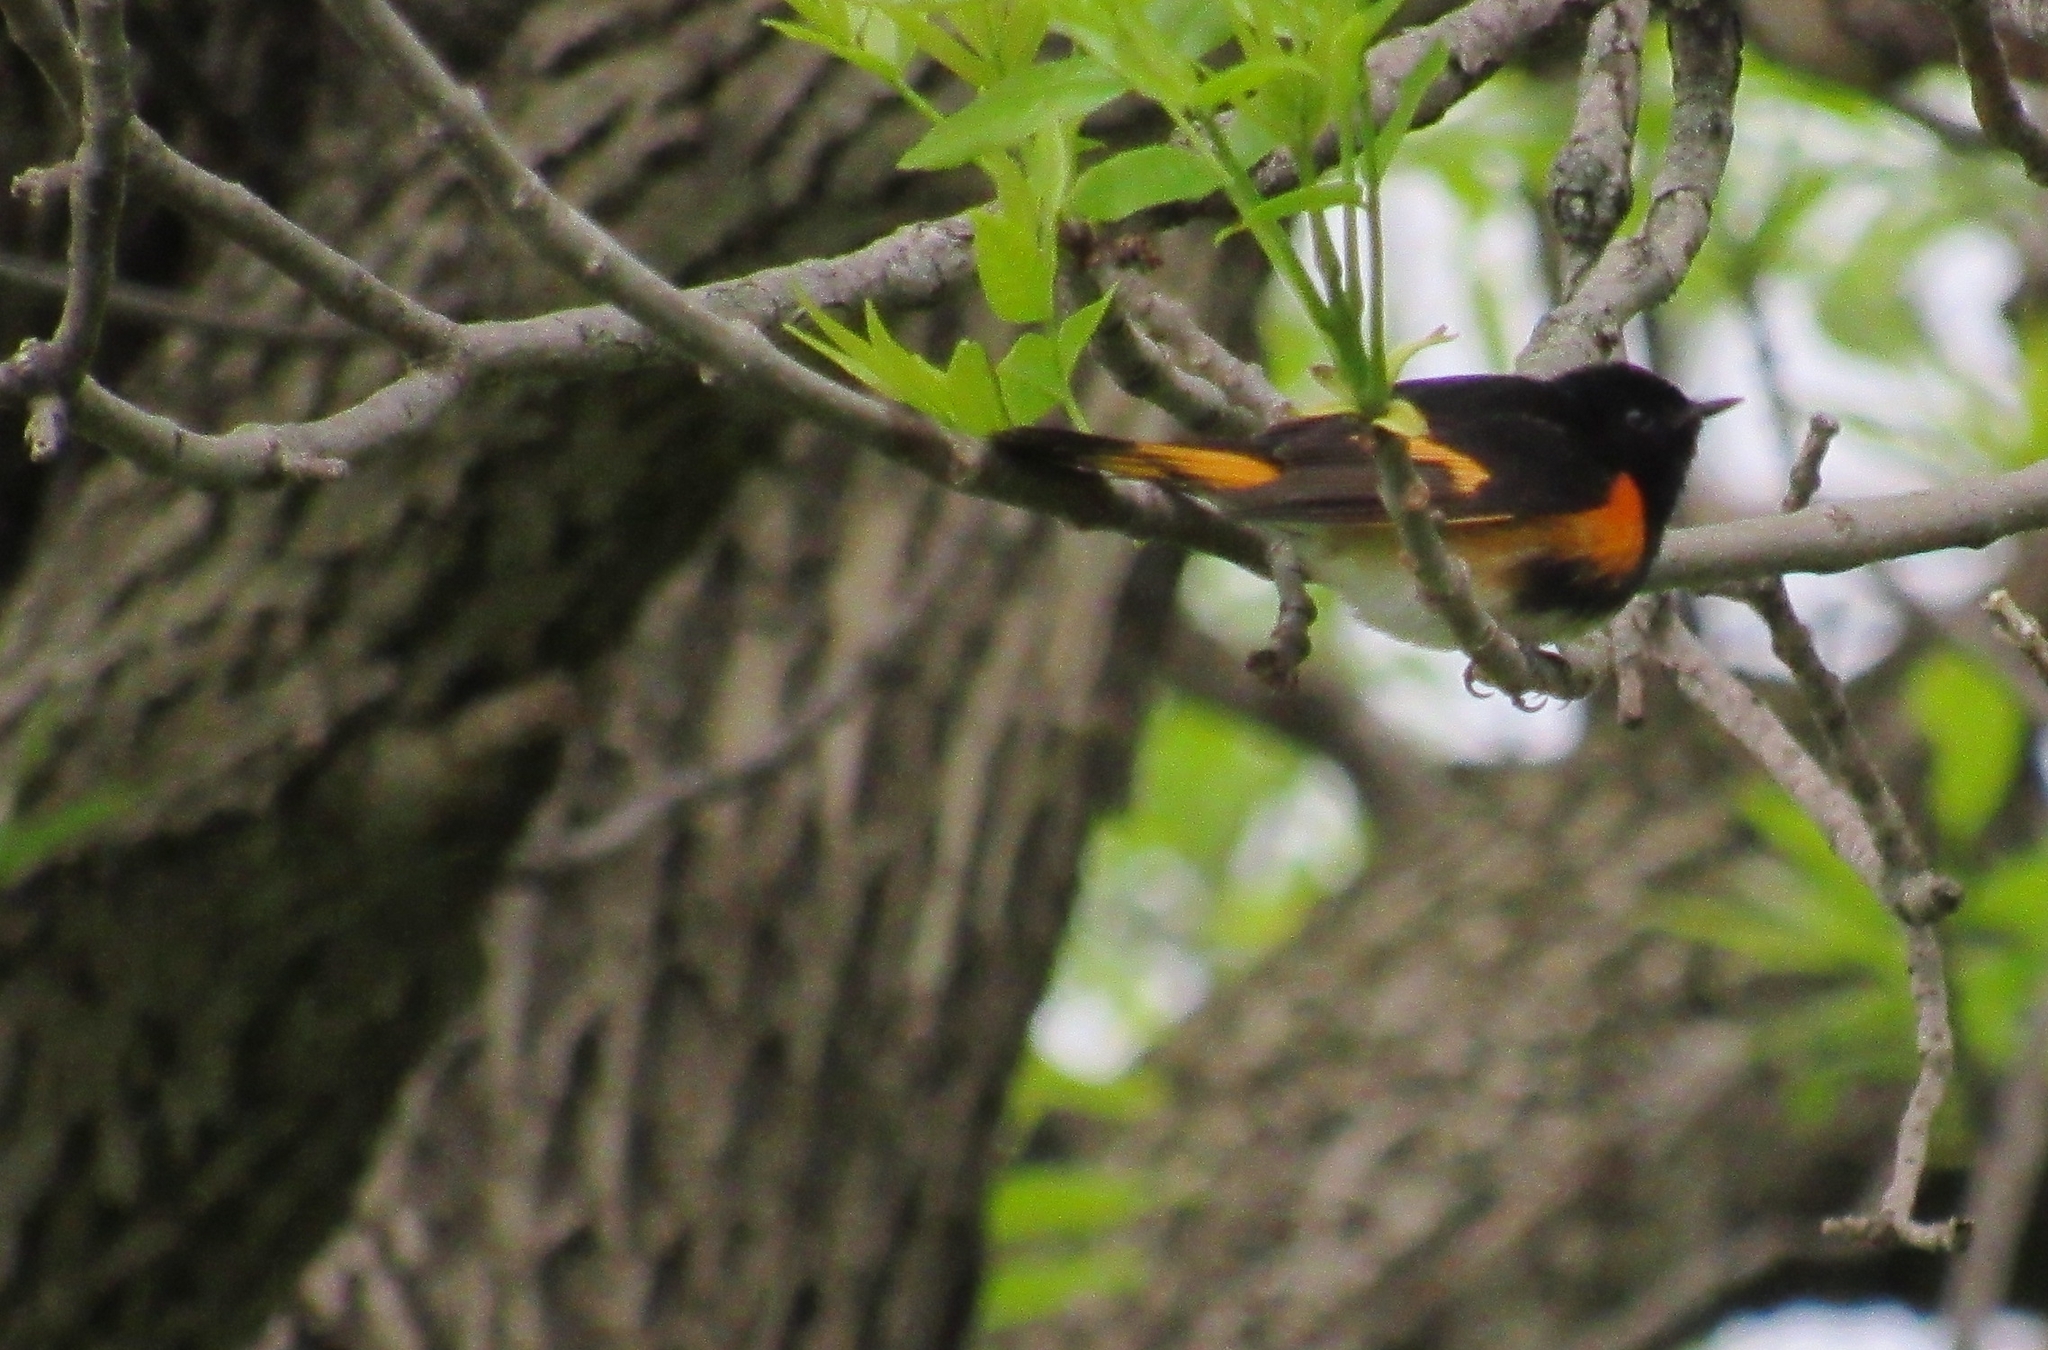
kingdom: Animalia
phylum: Chordata
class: Aves
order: Passeriformes
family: Parulidae
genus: Setophaga
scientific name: Setophaga ruticilla
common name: American redstart
